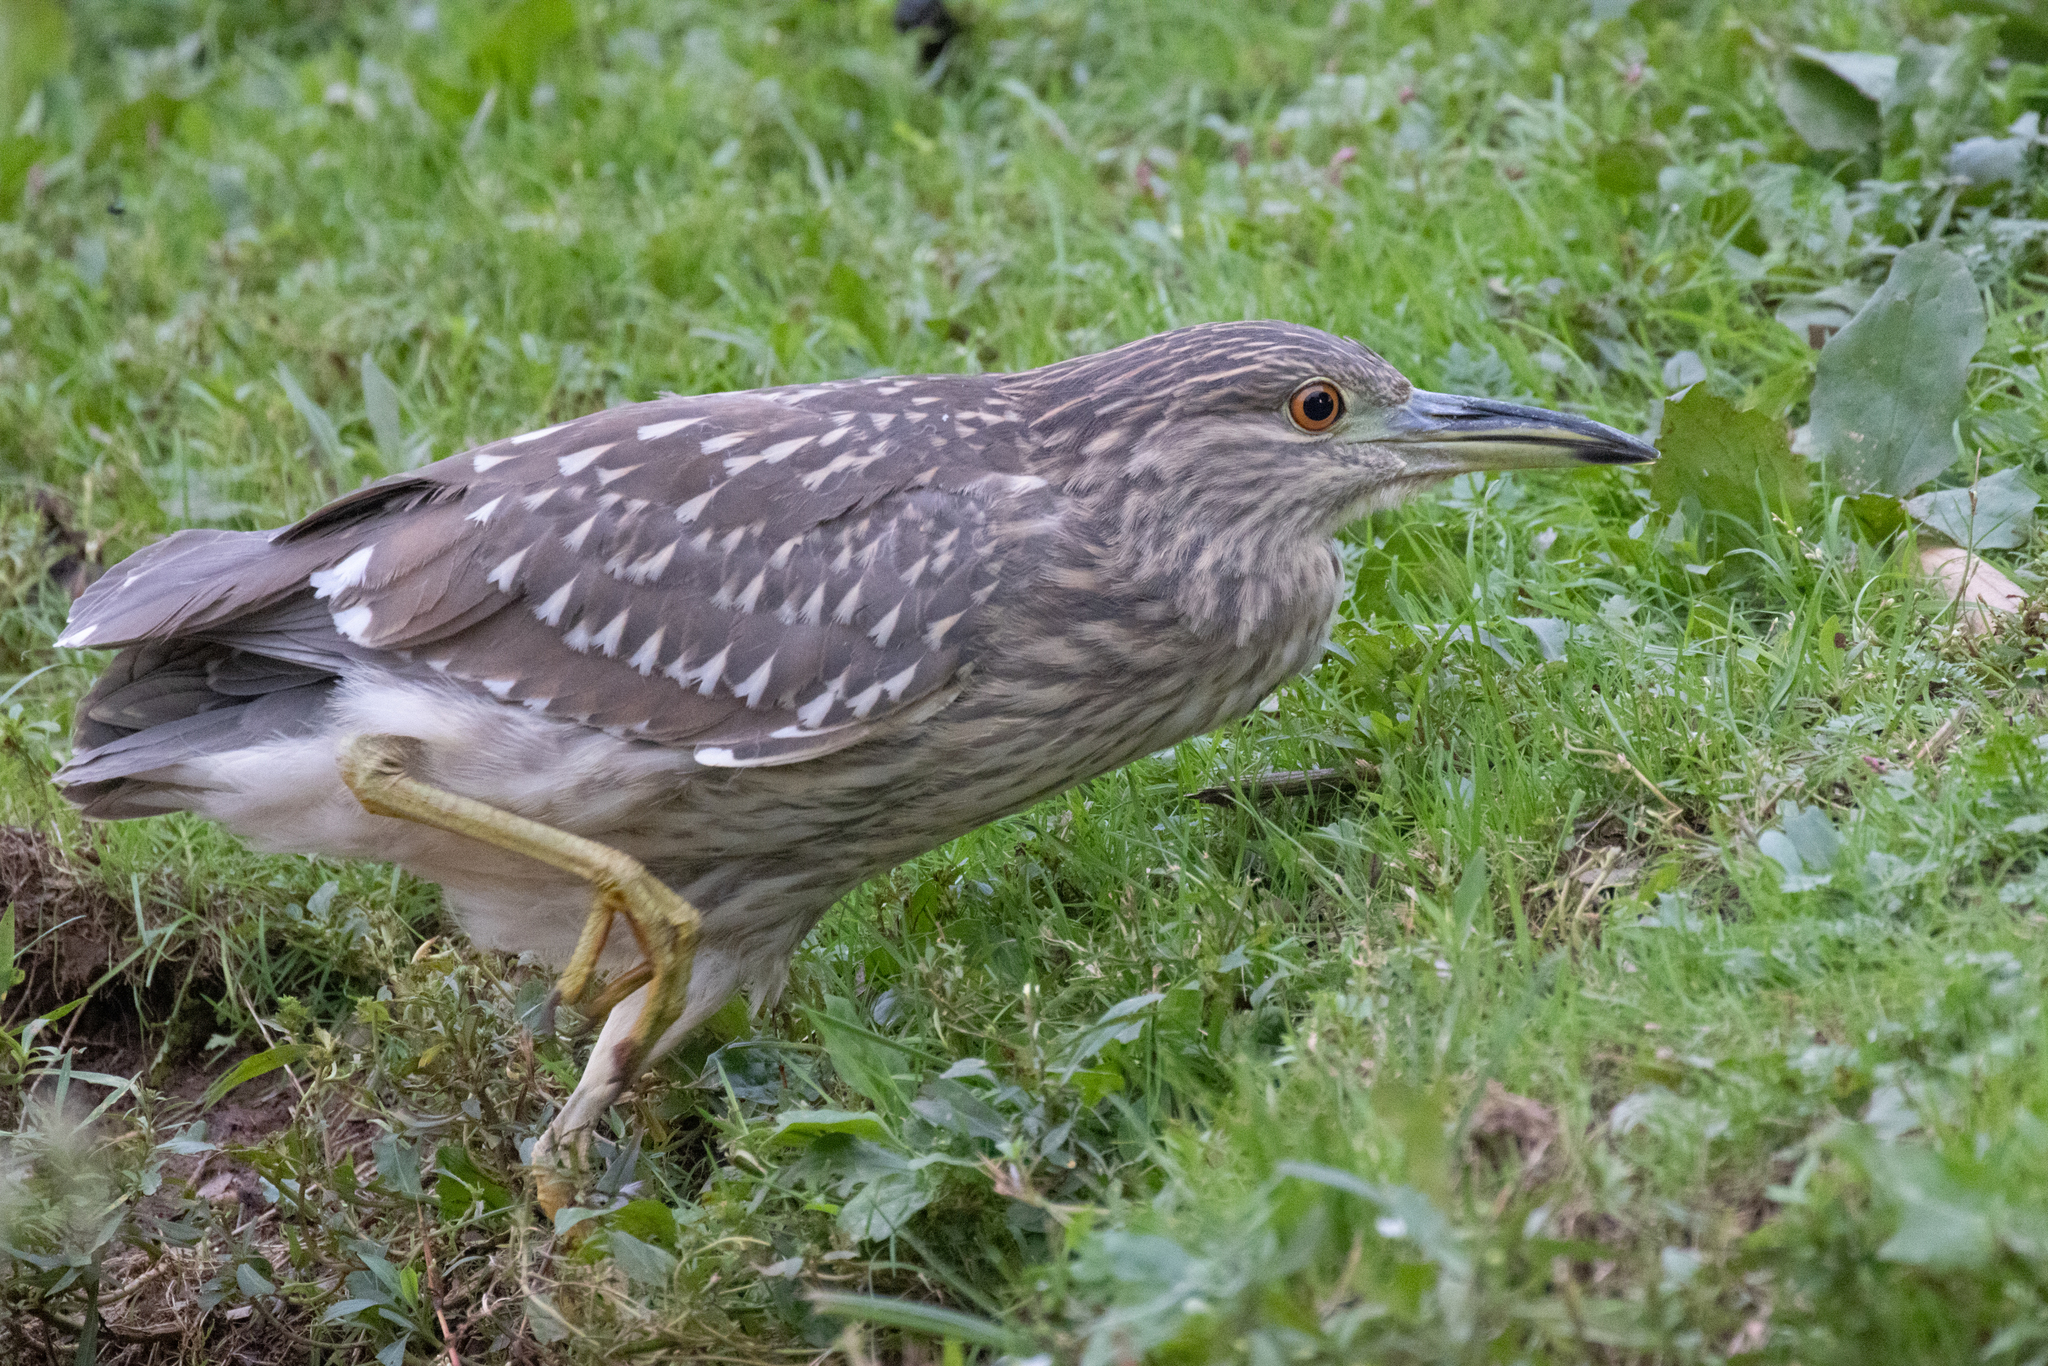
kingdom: Animalia
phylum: Chordata
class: Aves
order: Pelecaniformes
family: Ardeidae
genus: Nycticorax
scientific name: Nycticorax nycticorax
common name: Black-crowned night heron
